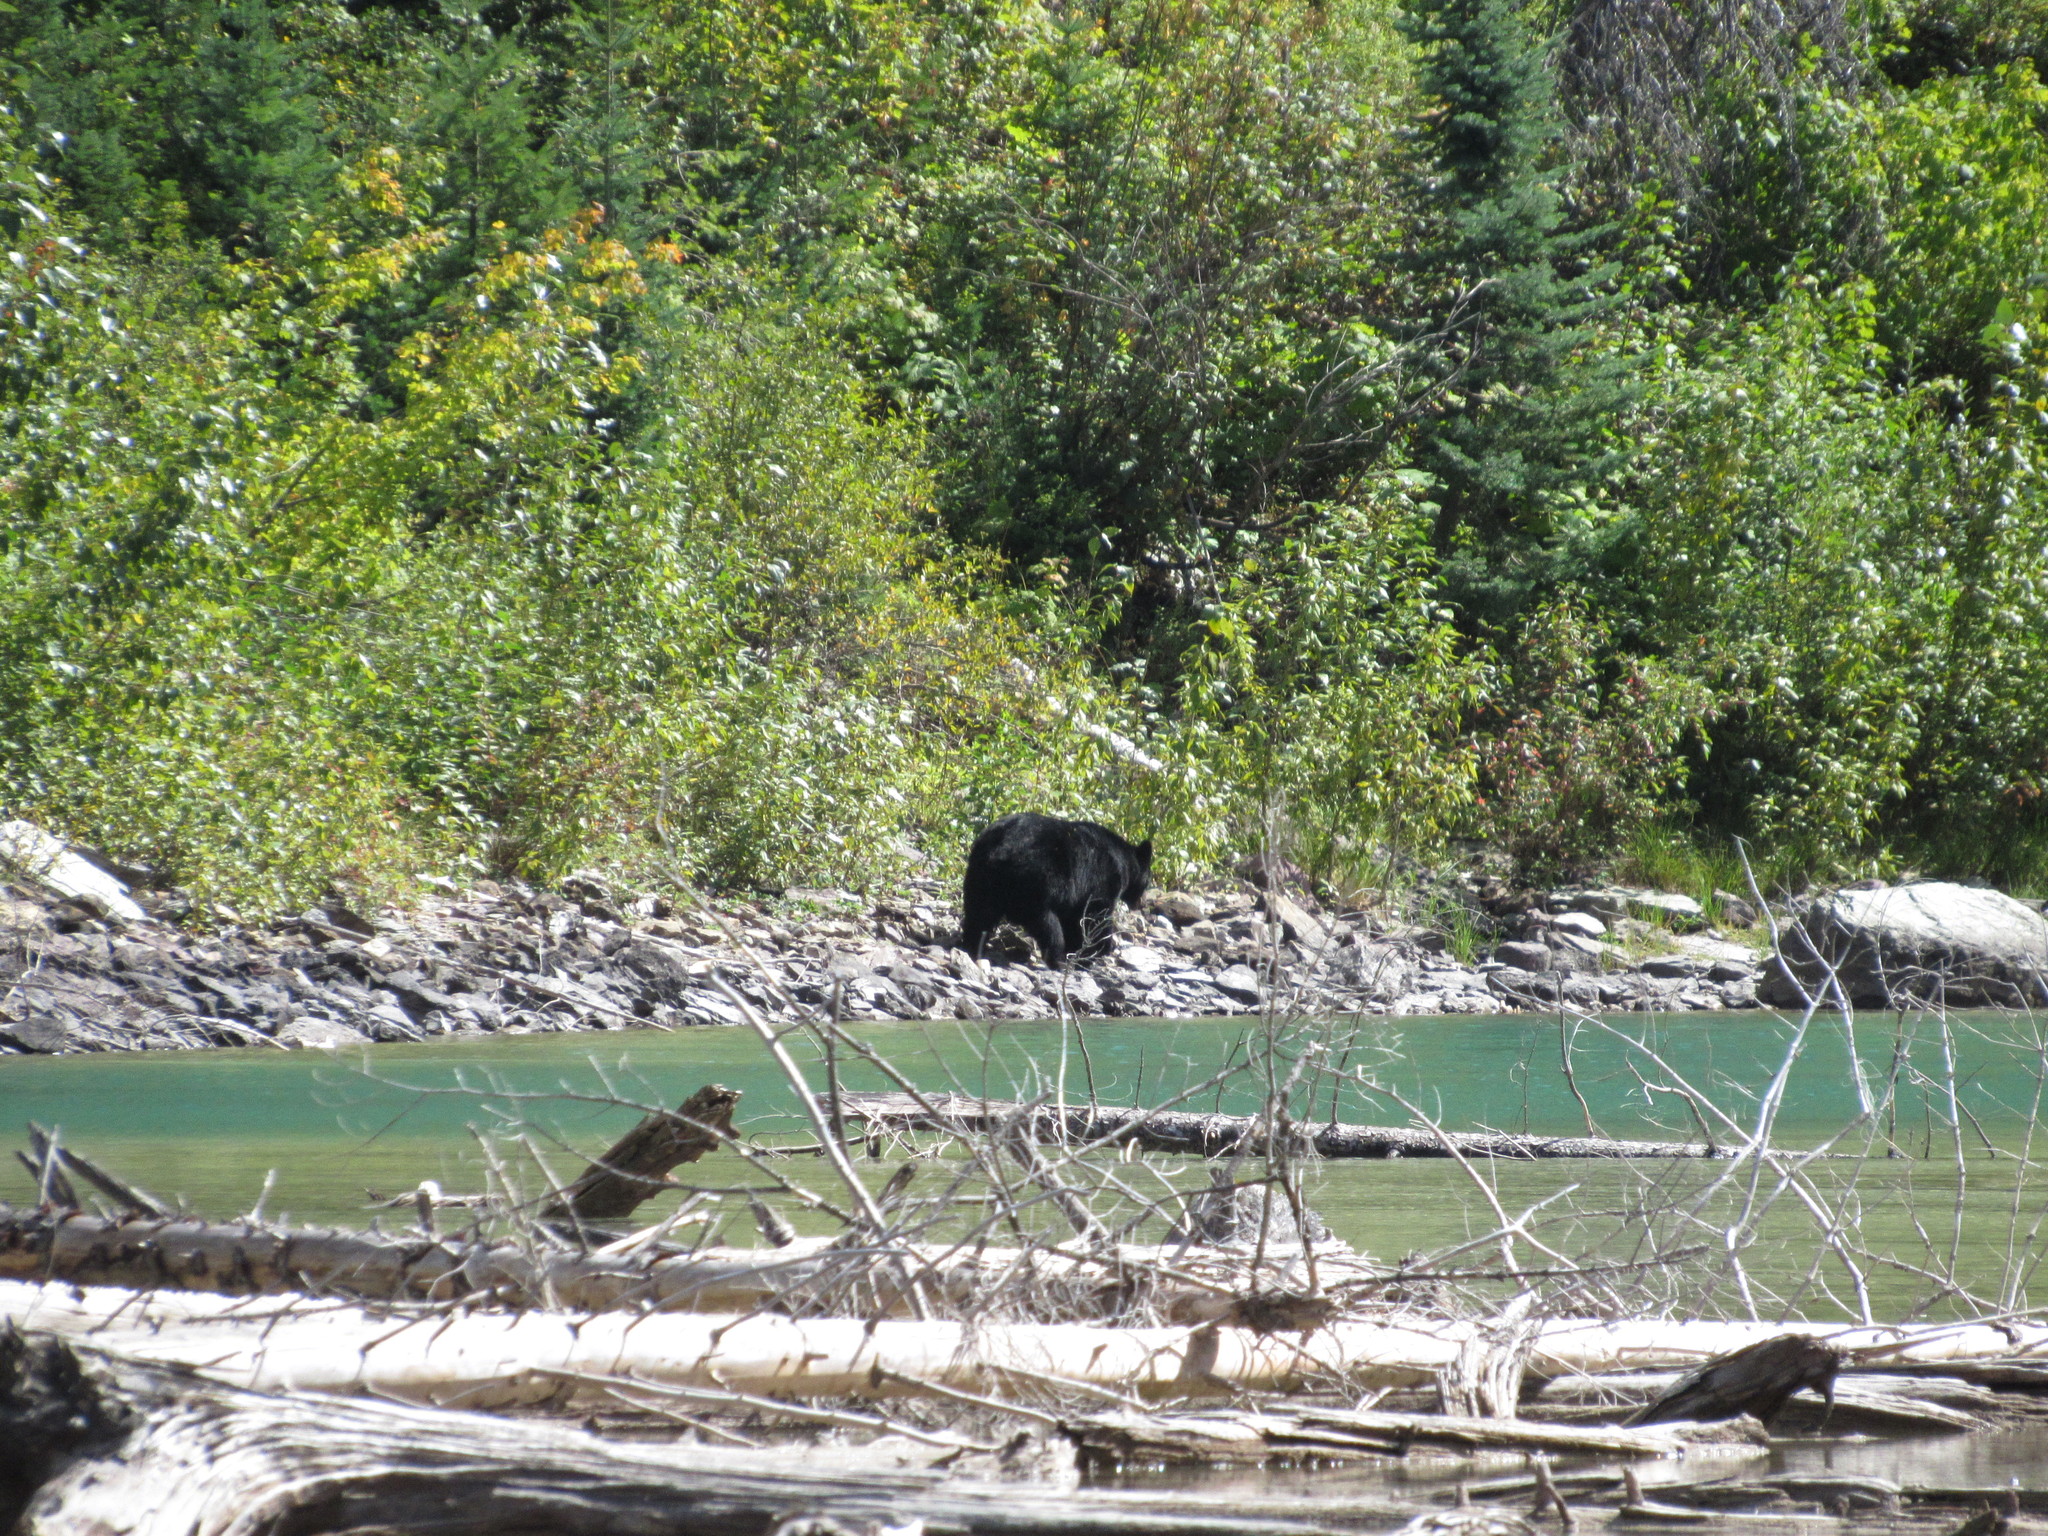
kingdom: Animalia
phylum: Chordata
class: Mammalia
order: Carnivora
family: Ursidae
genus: Ursus
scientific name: Ursus americanus
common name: American black bear
